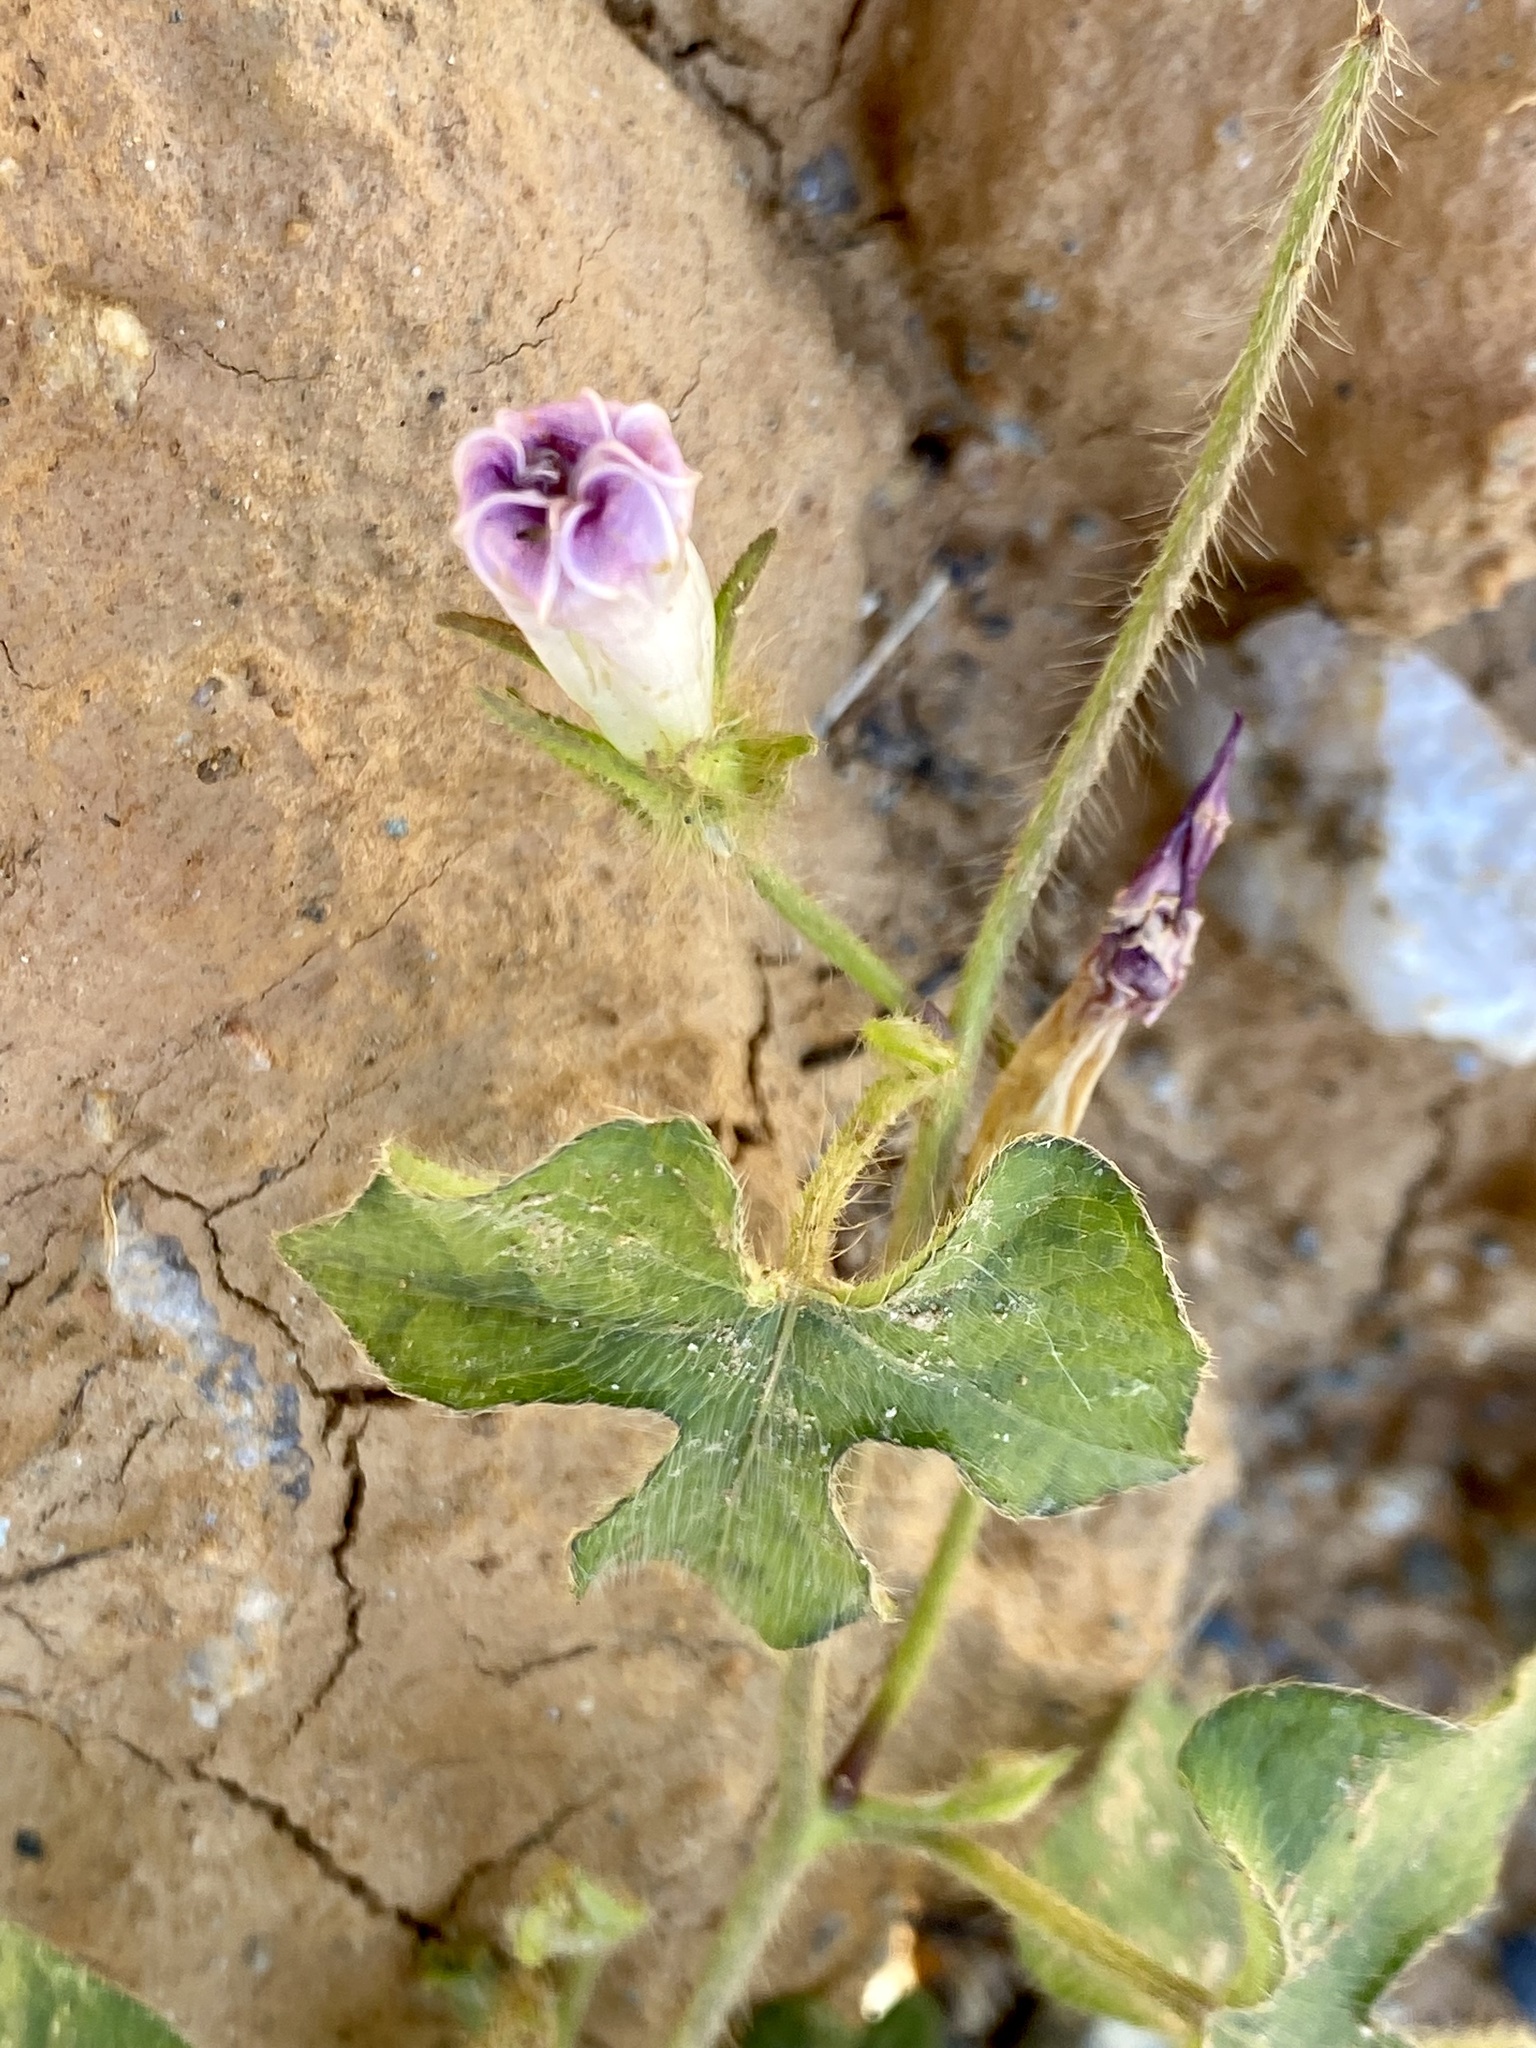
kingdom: Plantae
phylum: Tracheophyta
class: Magnoliopsida
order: Solanales
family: Convolvulaceae
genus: Ipomoea
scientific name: Ipomoea hederacea
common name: Ivy-leaved morning-glory
